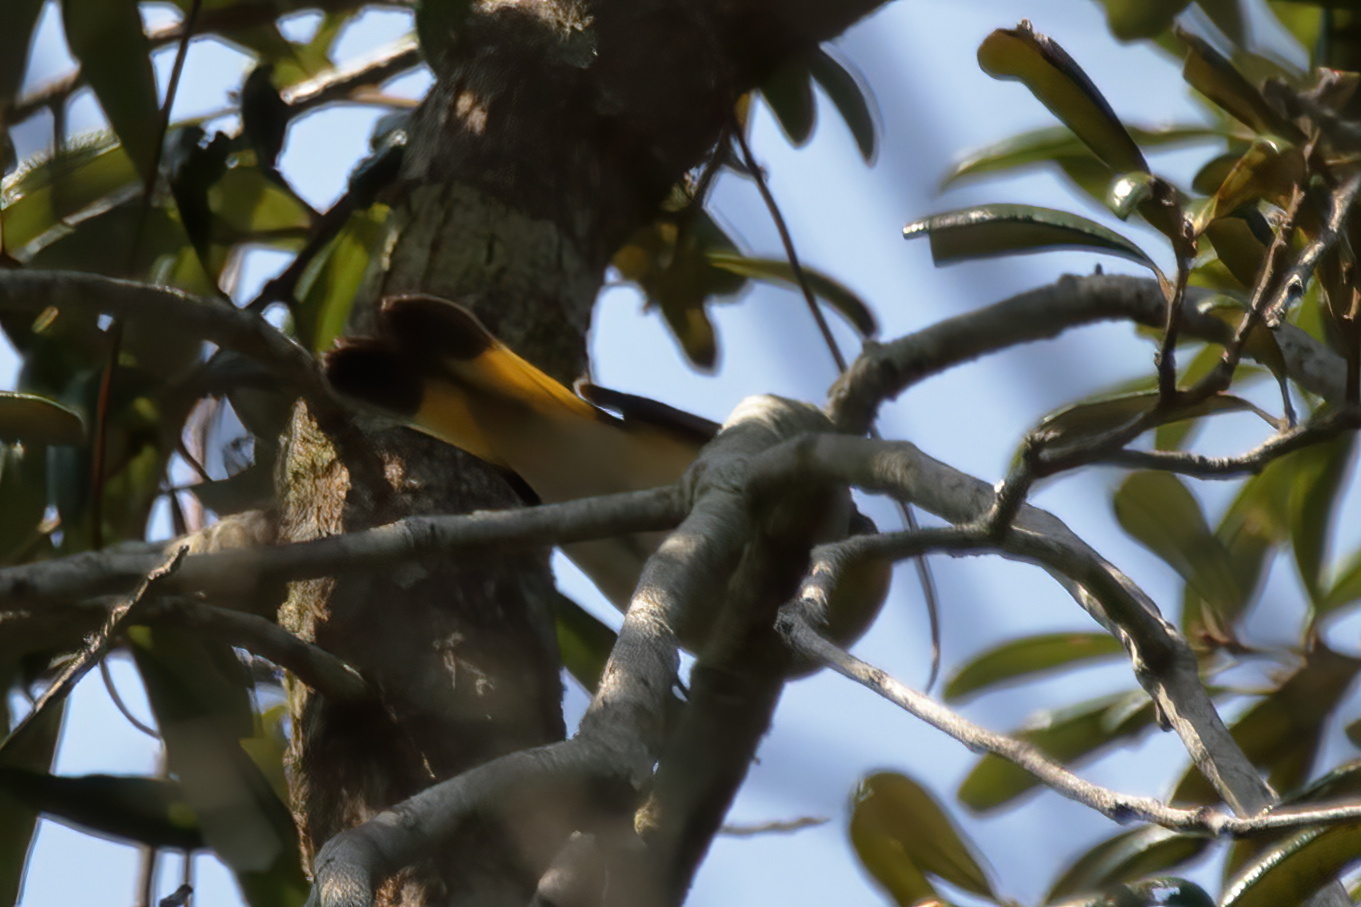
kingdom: Animalia
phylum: Chordata
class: Aves
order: Passeriformes
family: Parulidae
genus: Setophaga
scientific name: Setophaga ruticilla
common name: American redstart
